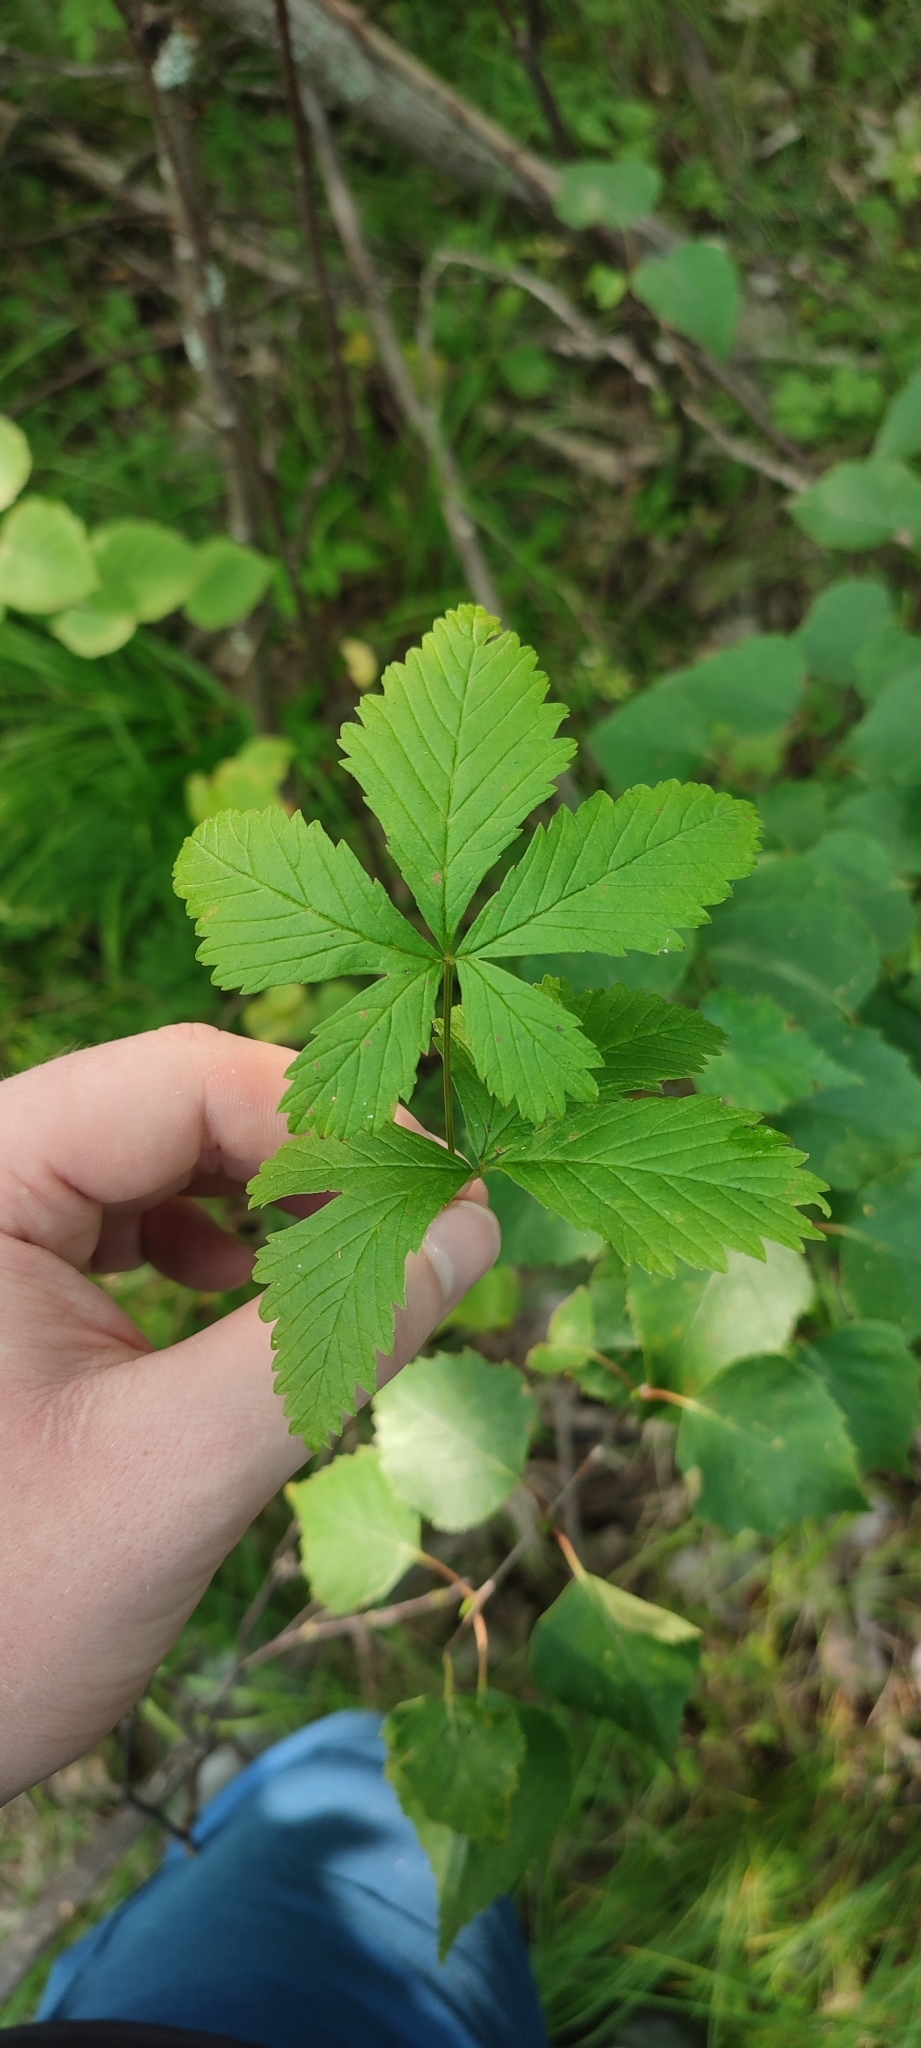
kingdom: Plantae
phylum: Tracheophyta
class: Magnoliopsida
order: Rosales
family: Rosaceae
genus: Rubus
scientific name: Rubus arcticus
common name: Arctic bramble
